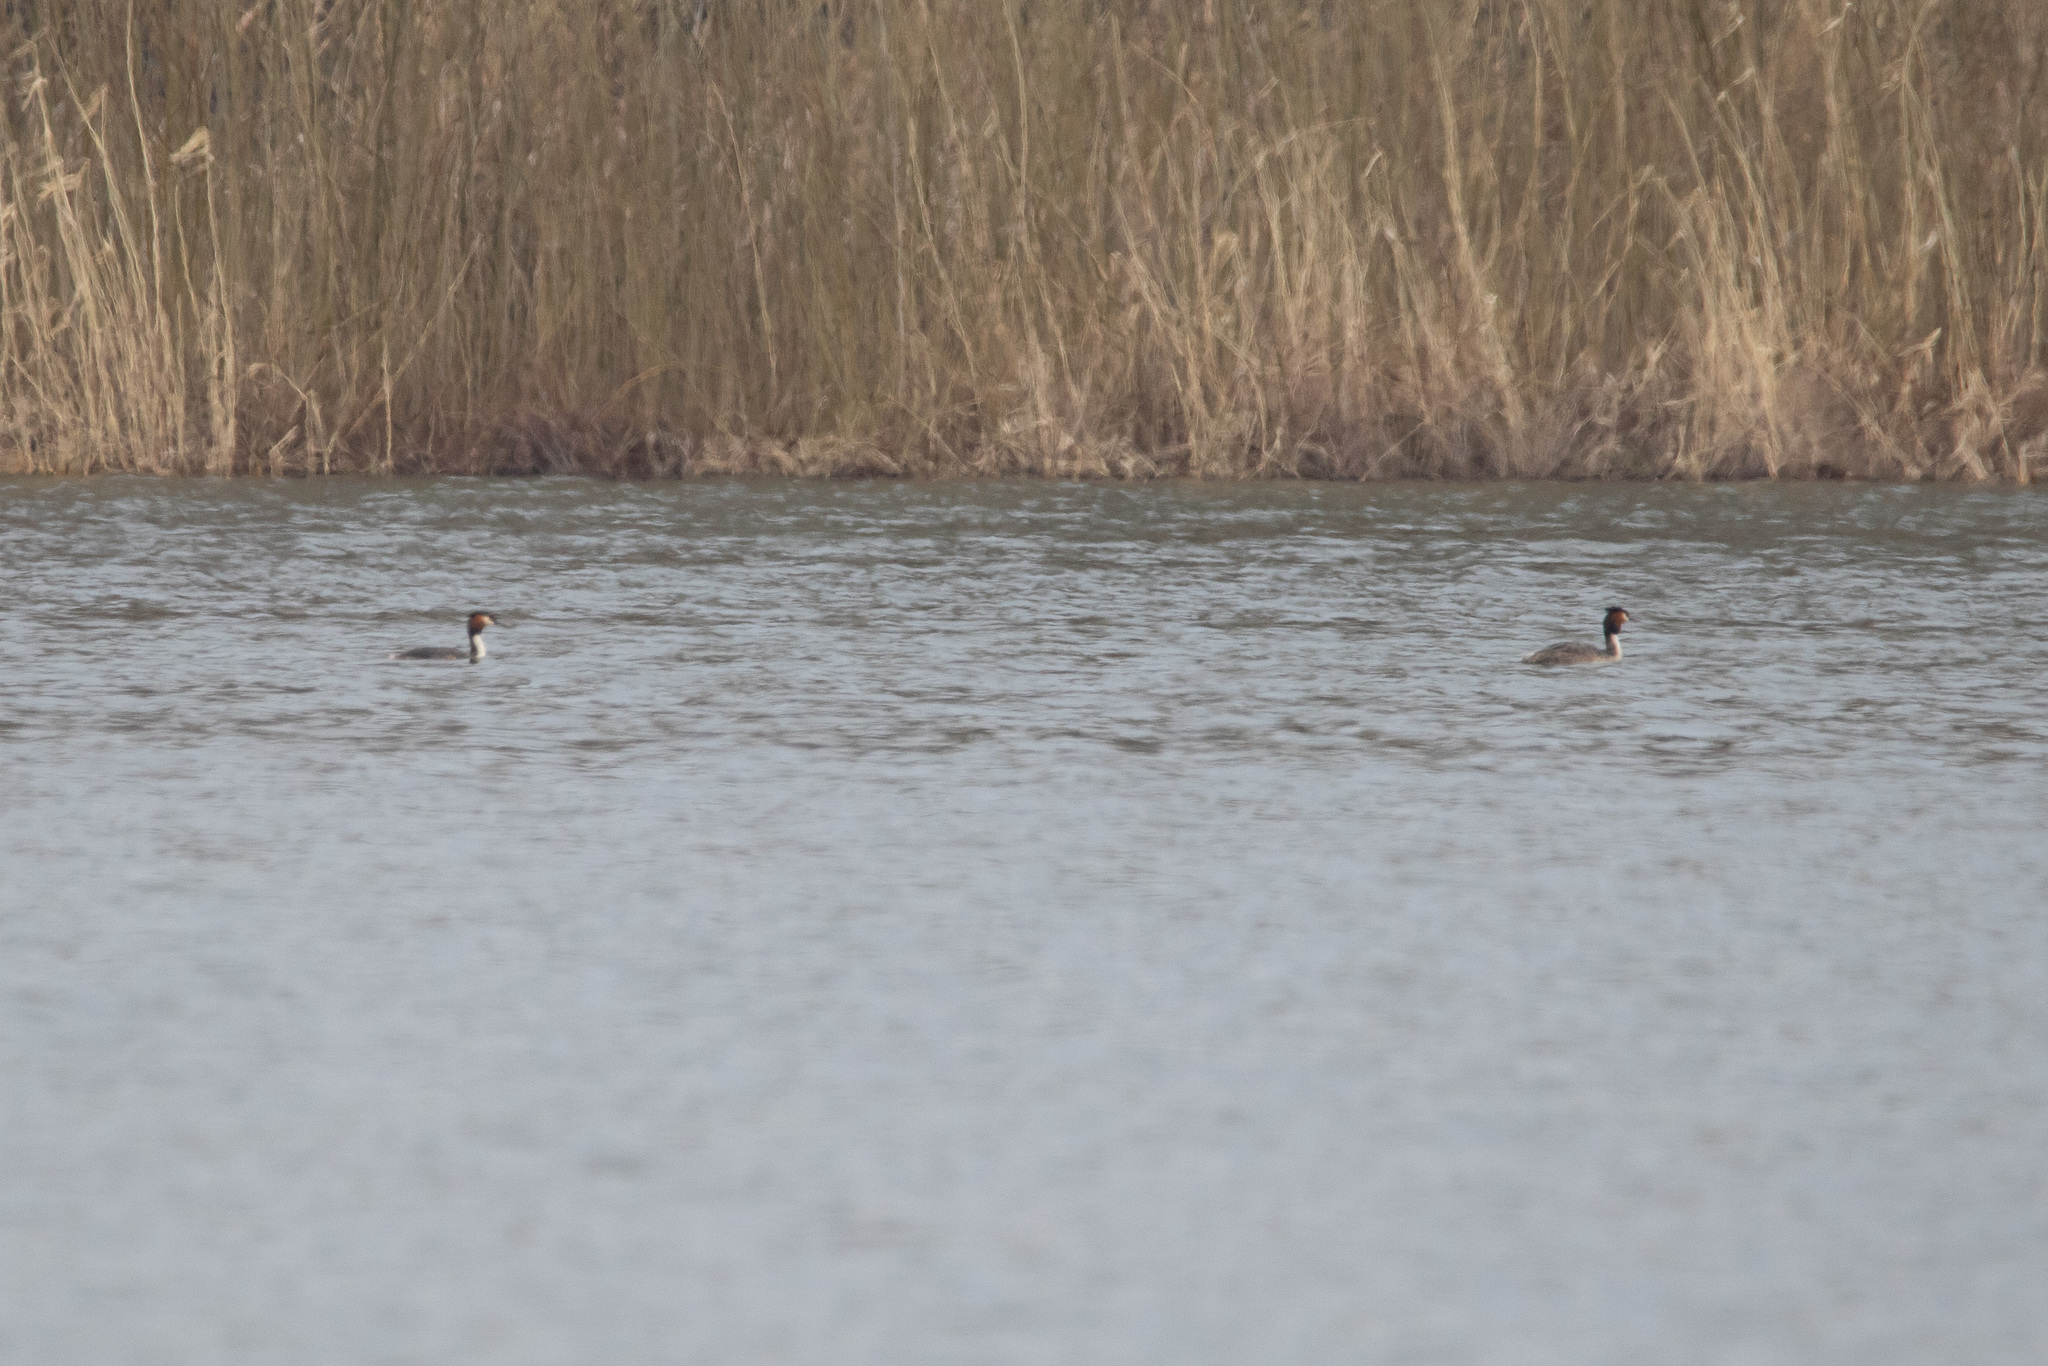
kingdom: Animalia
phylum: Chordata
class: Aves
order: Podicipediformes
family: Podicipedidae
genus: Podiceps
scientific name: Podiceps cristatus
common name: Great crested grebe
